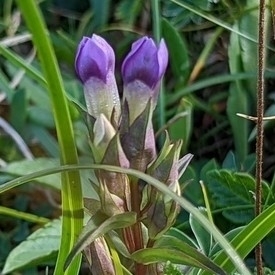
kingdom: Plantae
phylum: Tracheophyta
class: Magnoliopsida
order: Gentianales
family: Gentianaceae
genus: Gentianella
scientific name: Gentianella campestris
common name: Field gentian
